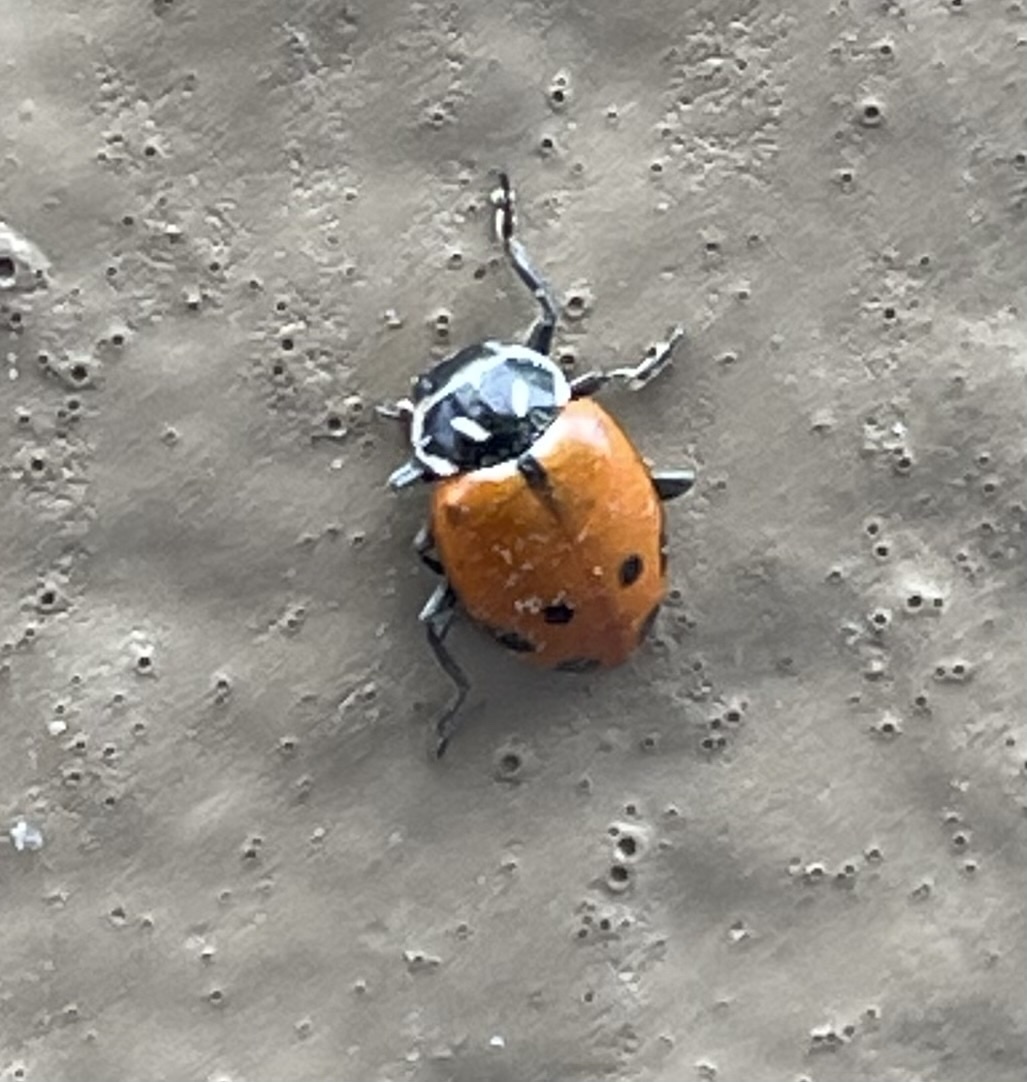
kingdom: Animalia
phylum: Arthropoda
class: Insecta
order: Coleoptera
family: Coccinellidae
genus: Hippodamia
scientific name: Hippodamia convergens
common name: Convergent lady beetle
